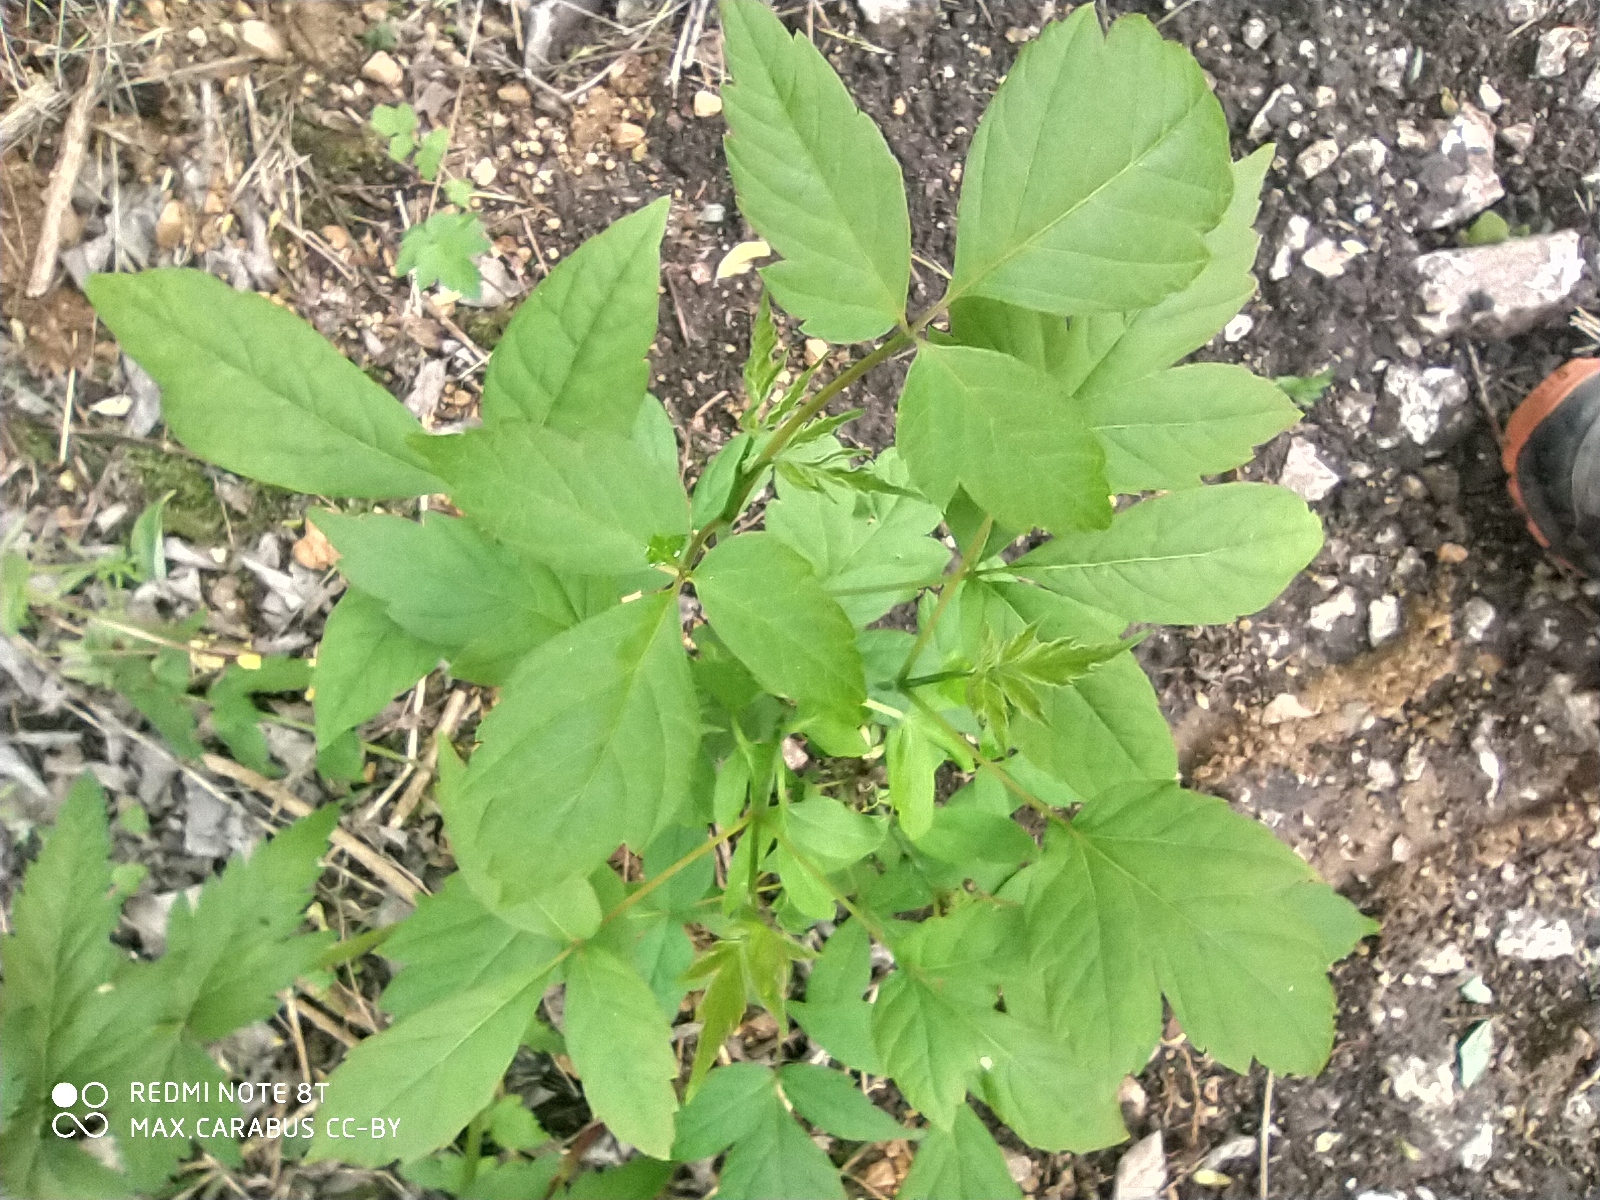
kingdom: Plantae
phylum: Tracheophyta
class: Magnoliopsida
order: Sapindales
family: Sapindaceae
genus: Acer
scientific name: Acer negundo
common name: Ashleaf maple
